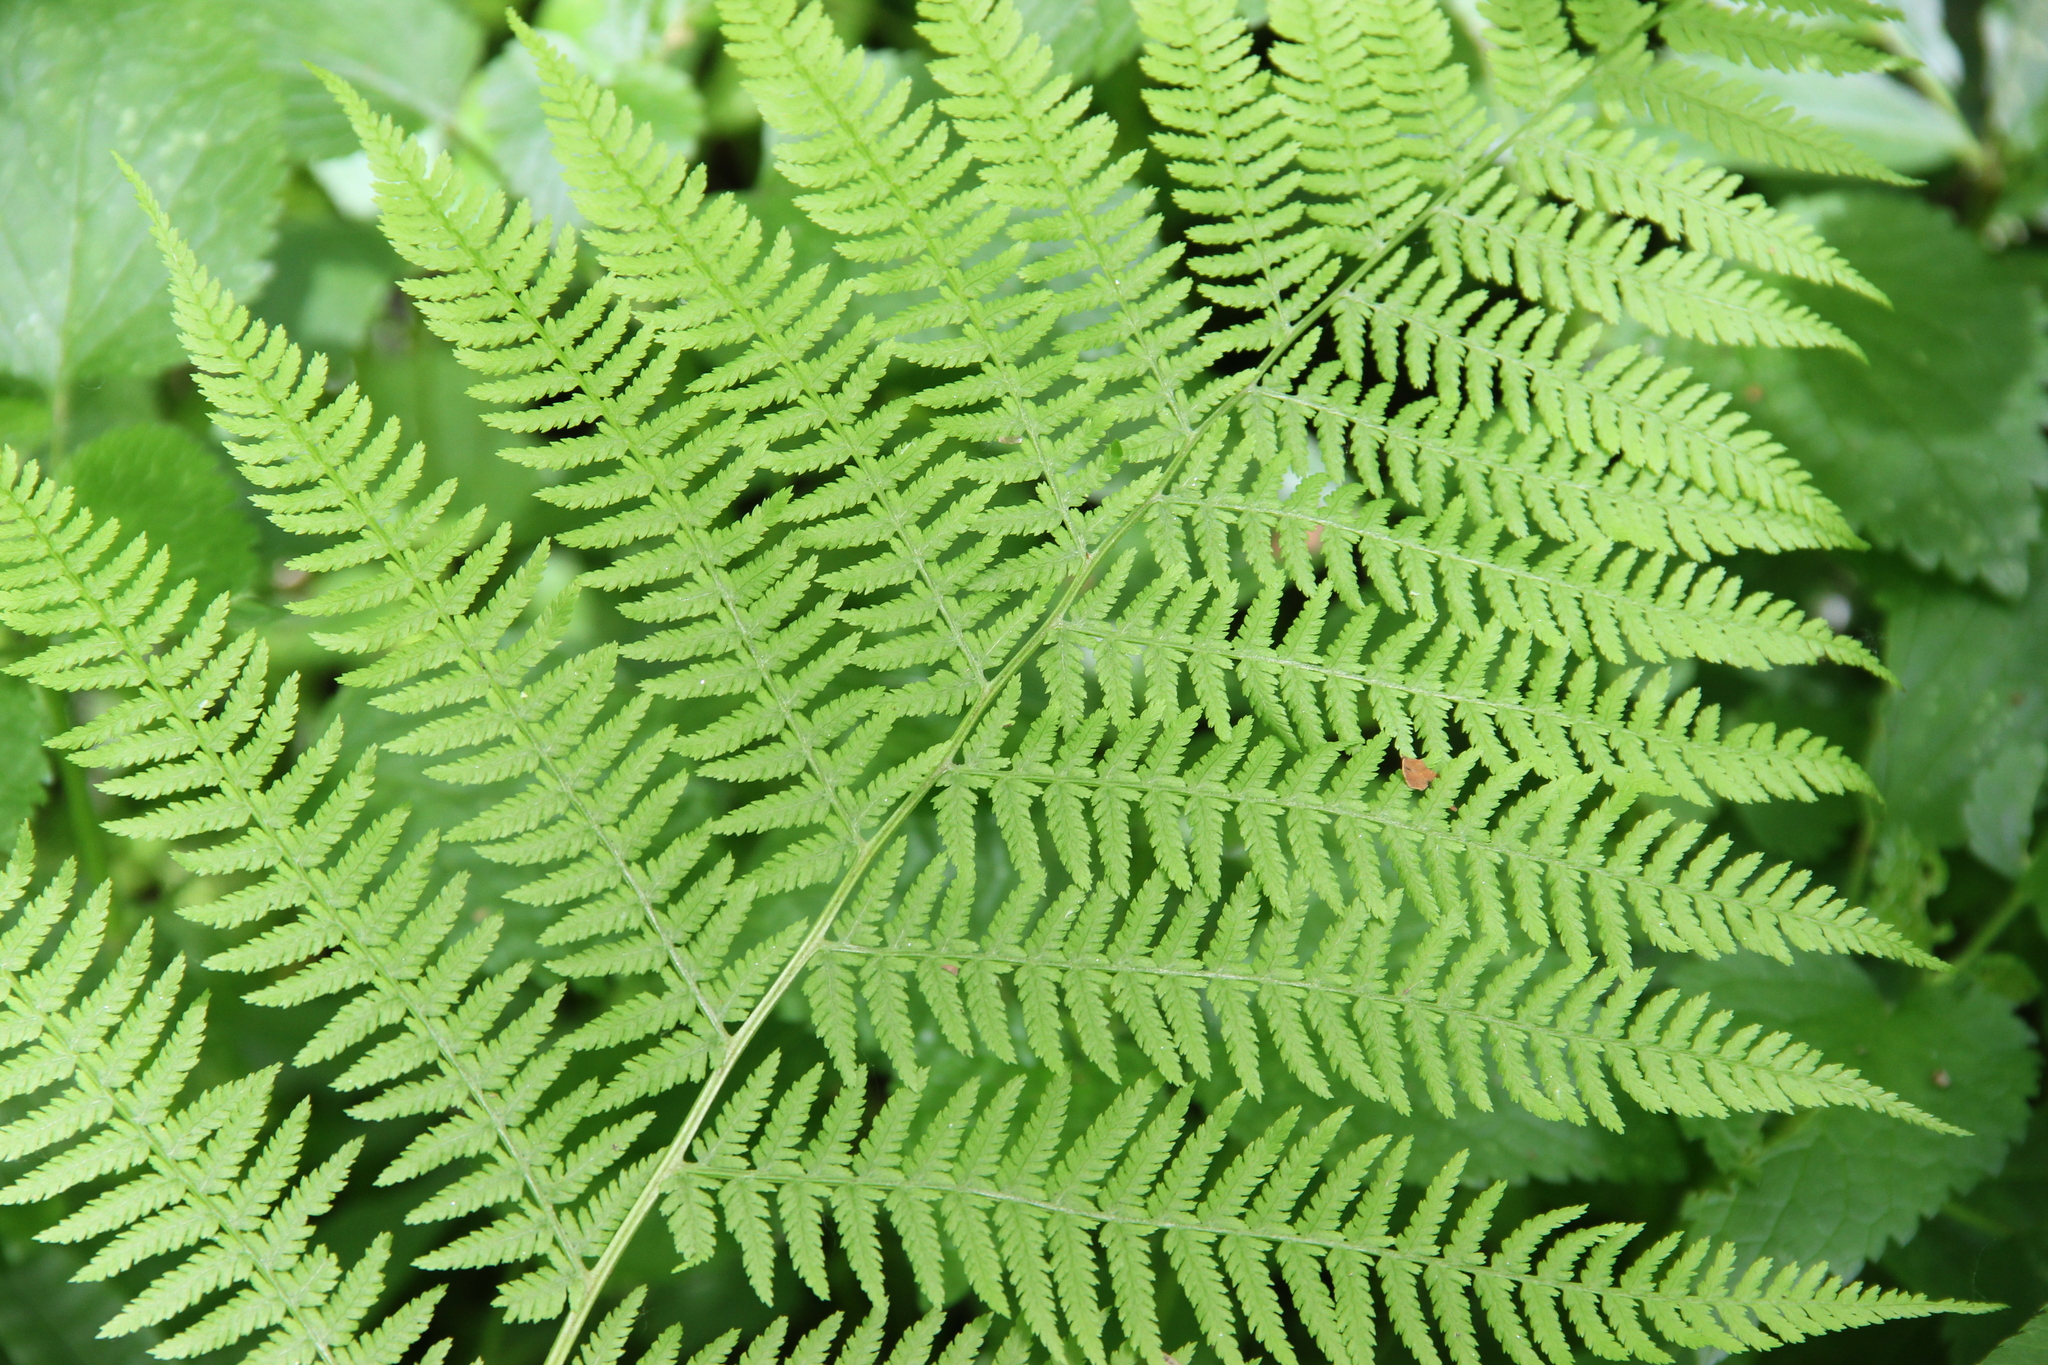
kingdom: Plantae
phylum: Tracheophyta
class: Polypodiopsida
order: Polypodiales
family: Athyriaceae
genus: Athyrium
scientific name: Athyrium filix-femina
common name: Lady fern
